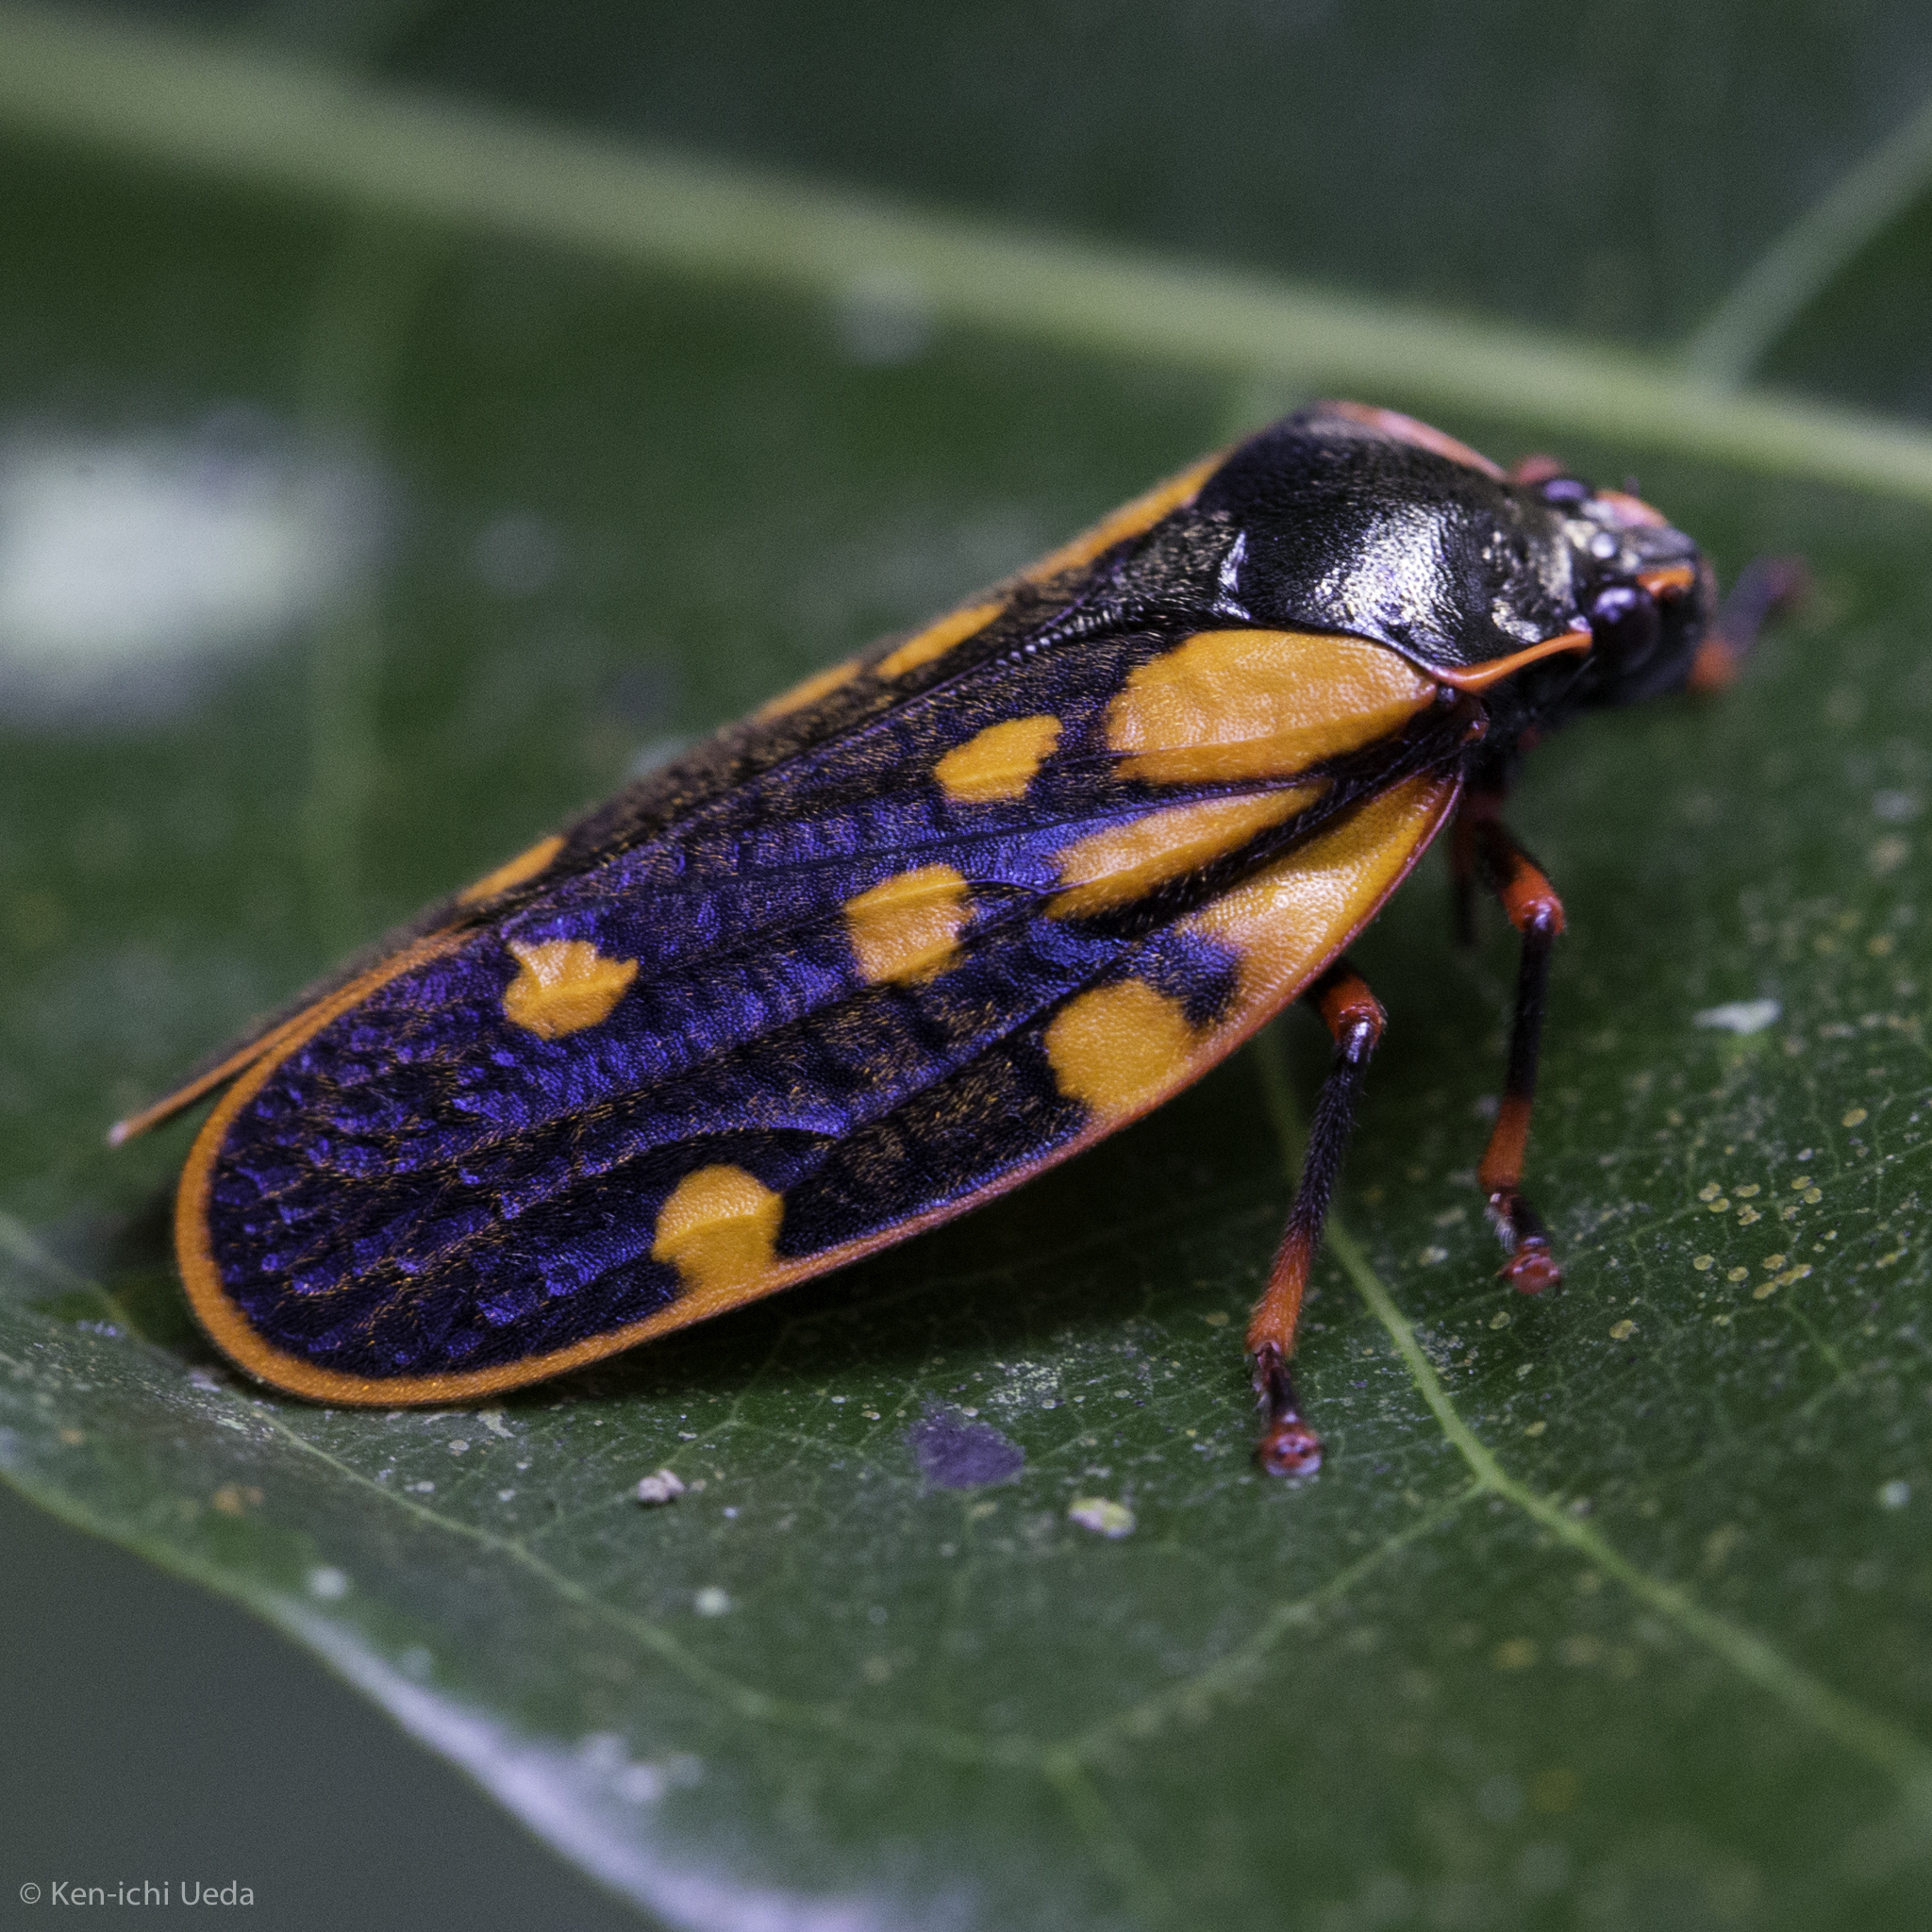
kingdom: Animalia
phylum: Arthropoda
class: Insecta
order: Hemiptera
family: Cercopidae
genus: Mahanarva
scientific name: Mahanarva costaricensis
